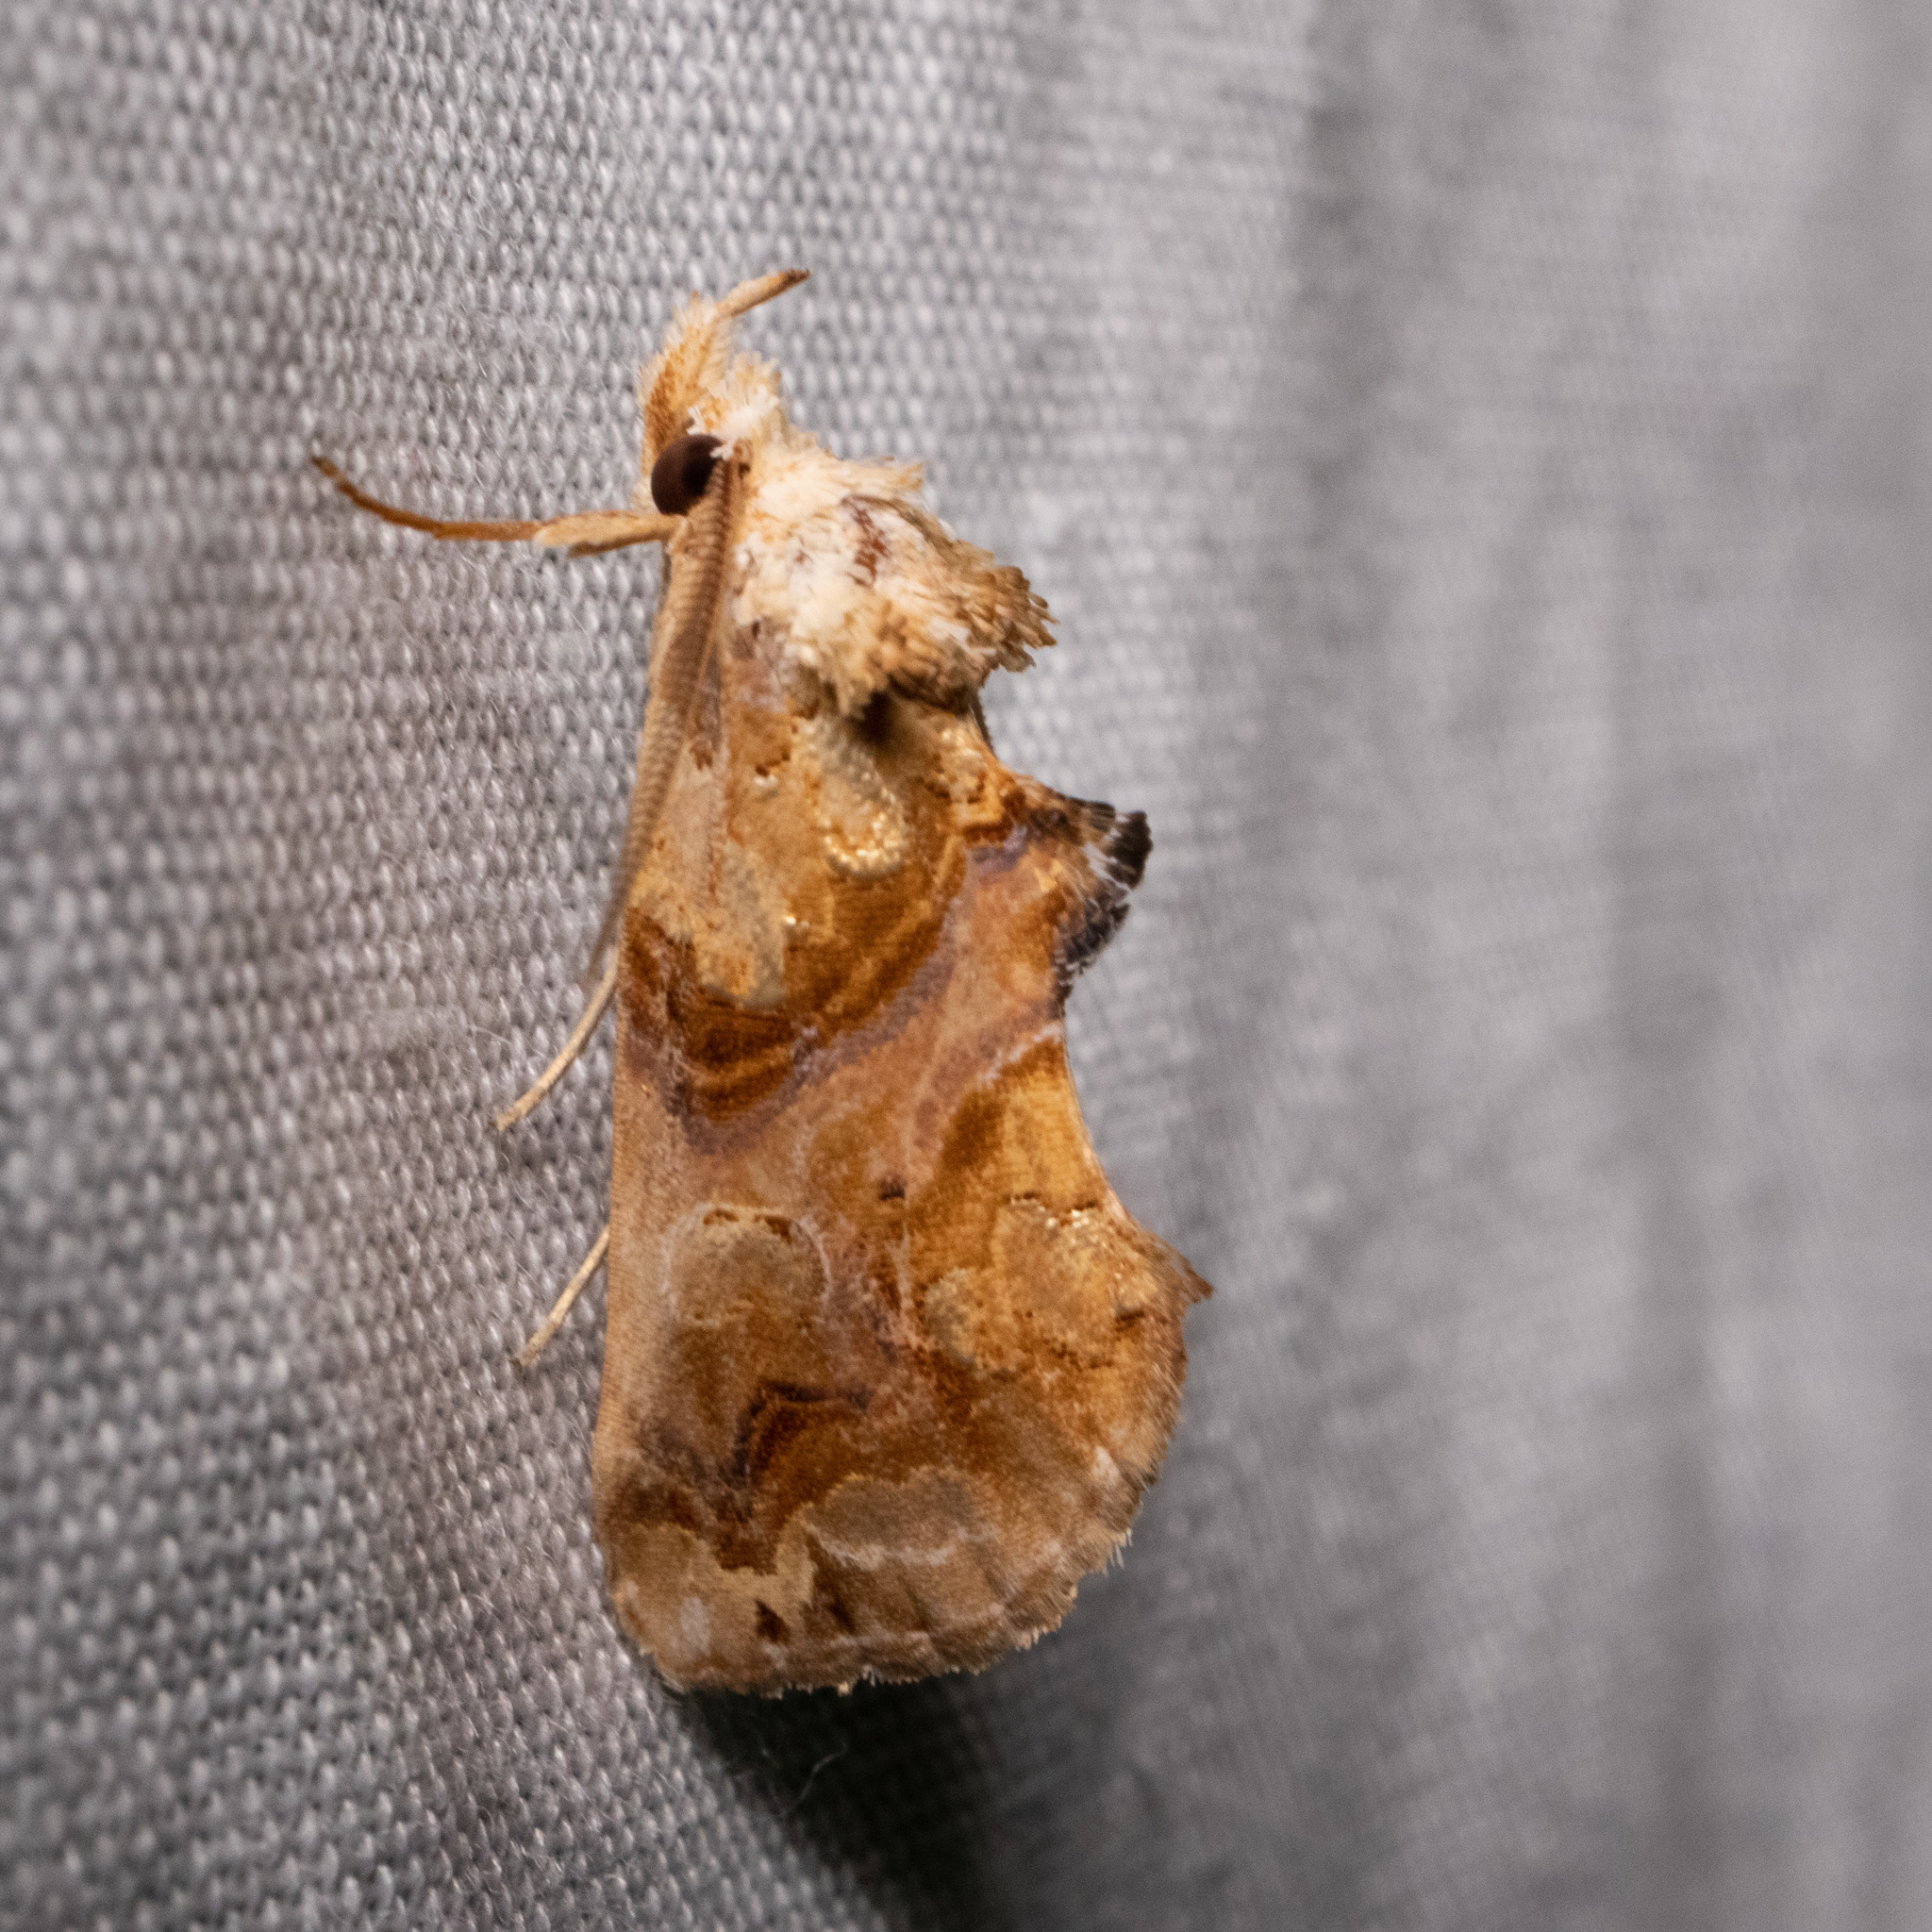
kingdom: Animalia
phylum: Arthropoda
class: Insecta
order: Lepidoptera
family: Erebidae
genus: Plusiodonta
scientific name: Plusiodonta compressipalpis
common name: Moonseed moth
